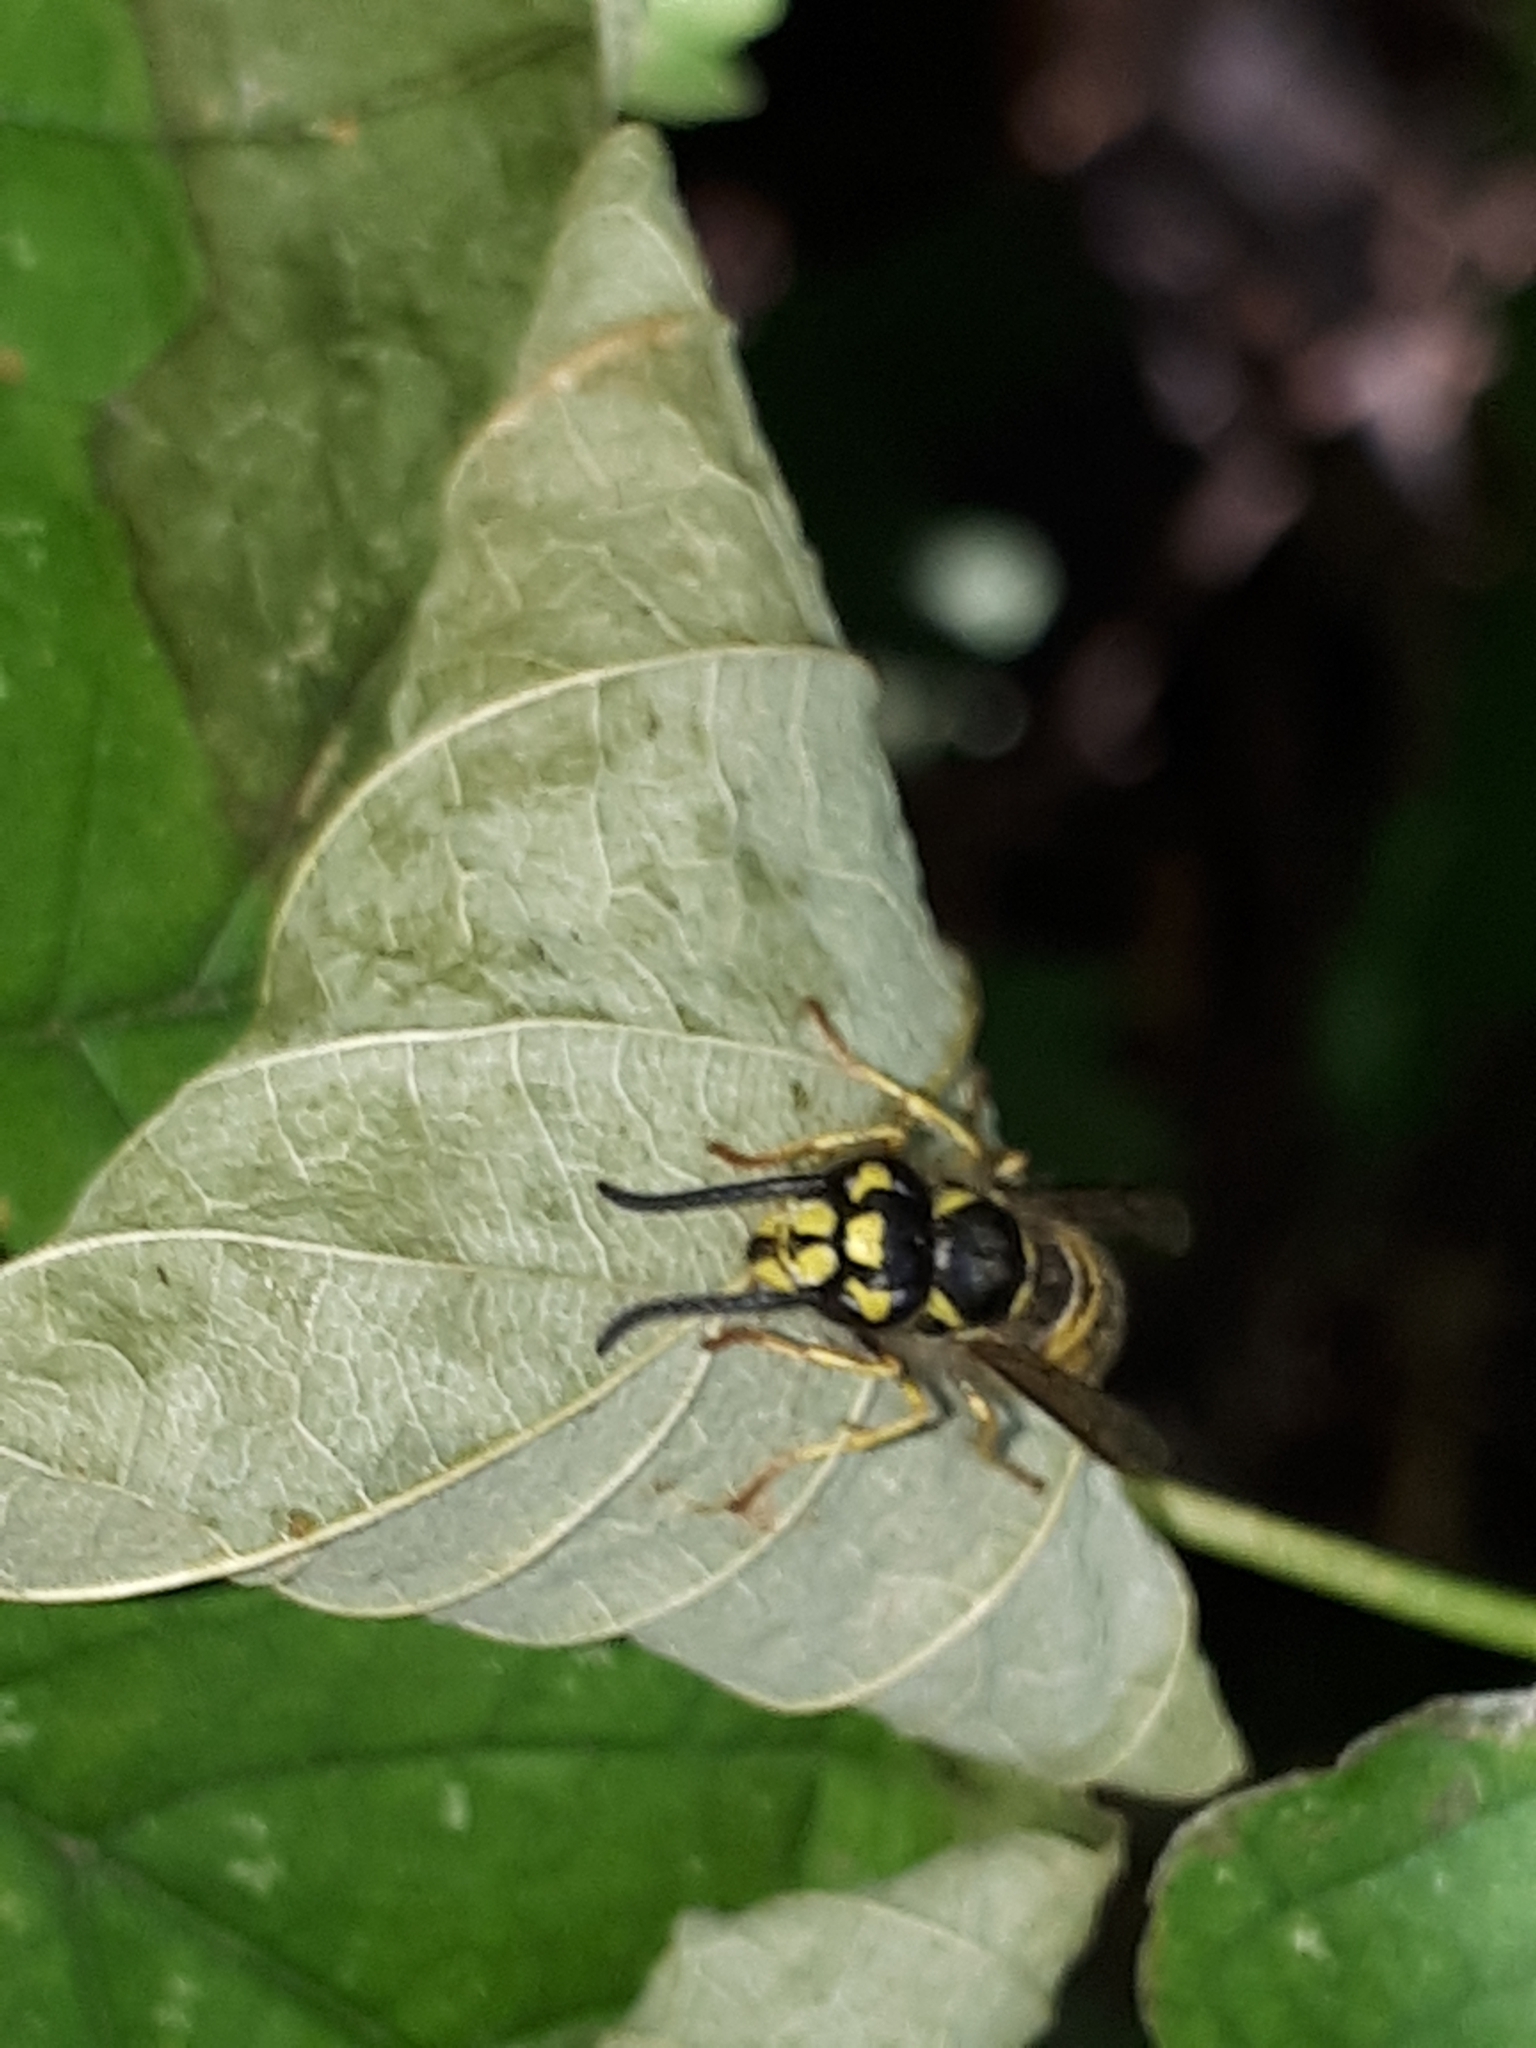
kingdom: Animalia
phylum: Arthropoda
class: Insecta
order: Hymenoptera
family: Vespidae
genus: Vespula
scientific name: Vespula vulgaris
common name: Common wasp
